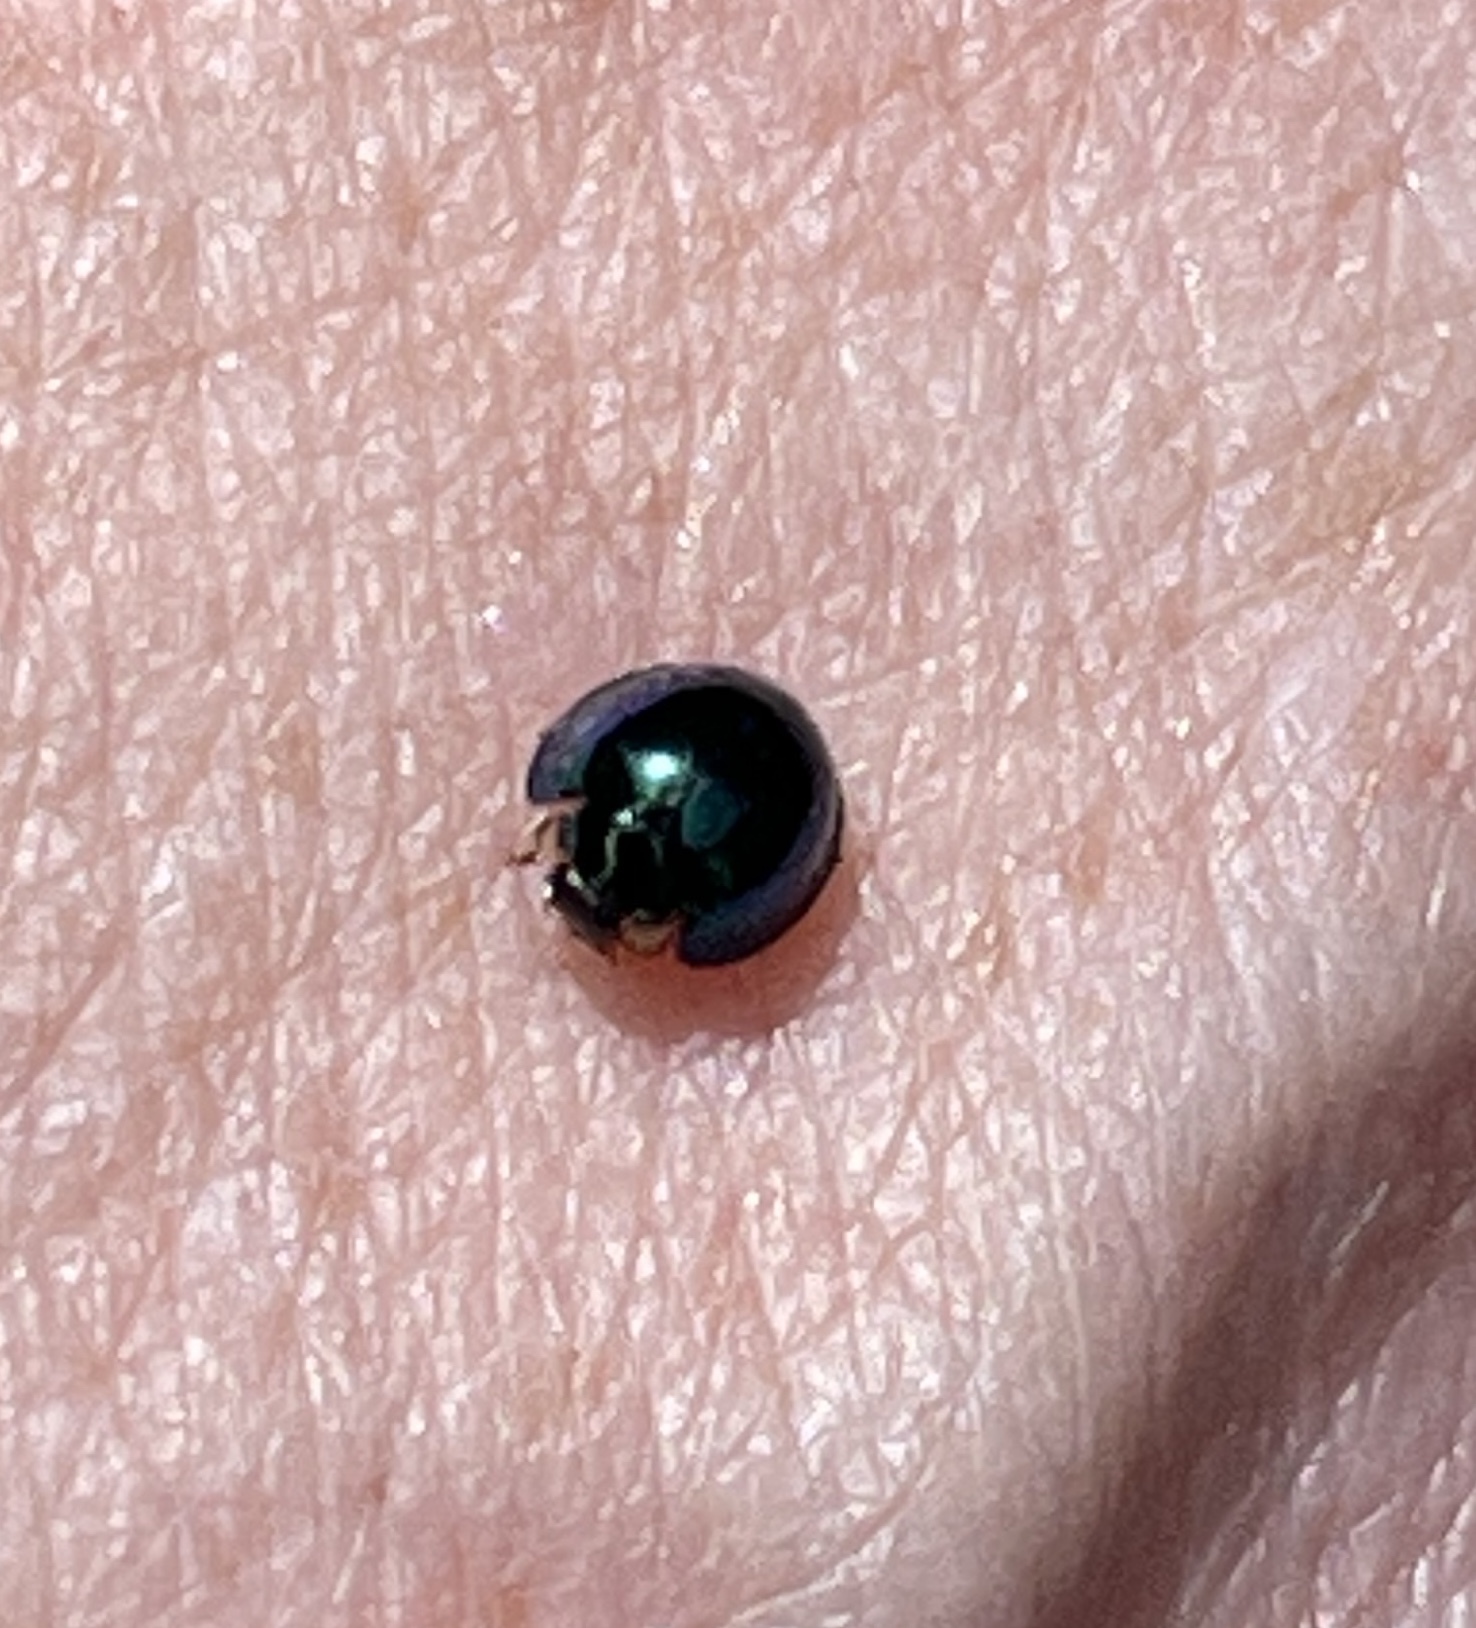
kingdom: Animalia
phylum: Arthropoda
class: Insecta
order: Coleoptera
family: Coccinellidae
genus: Halmus
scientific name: Halmus chalybeus
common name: Steel blue ladybird beetle
